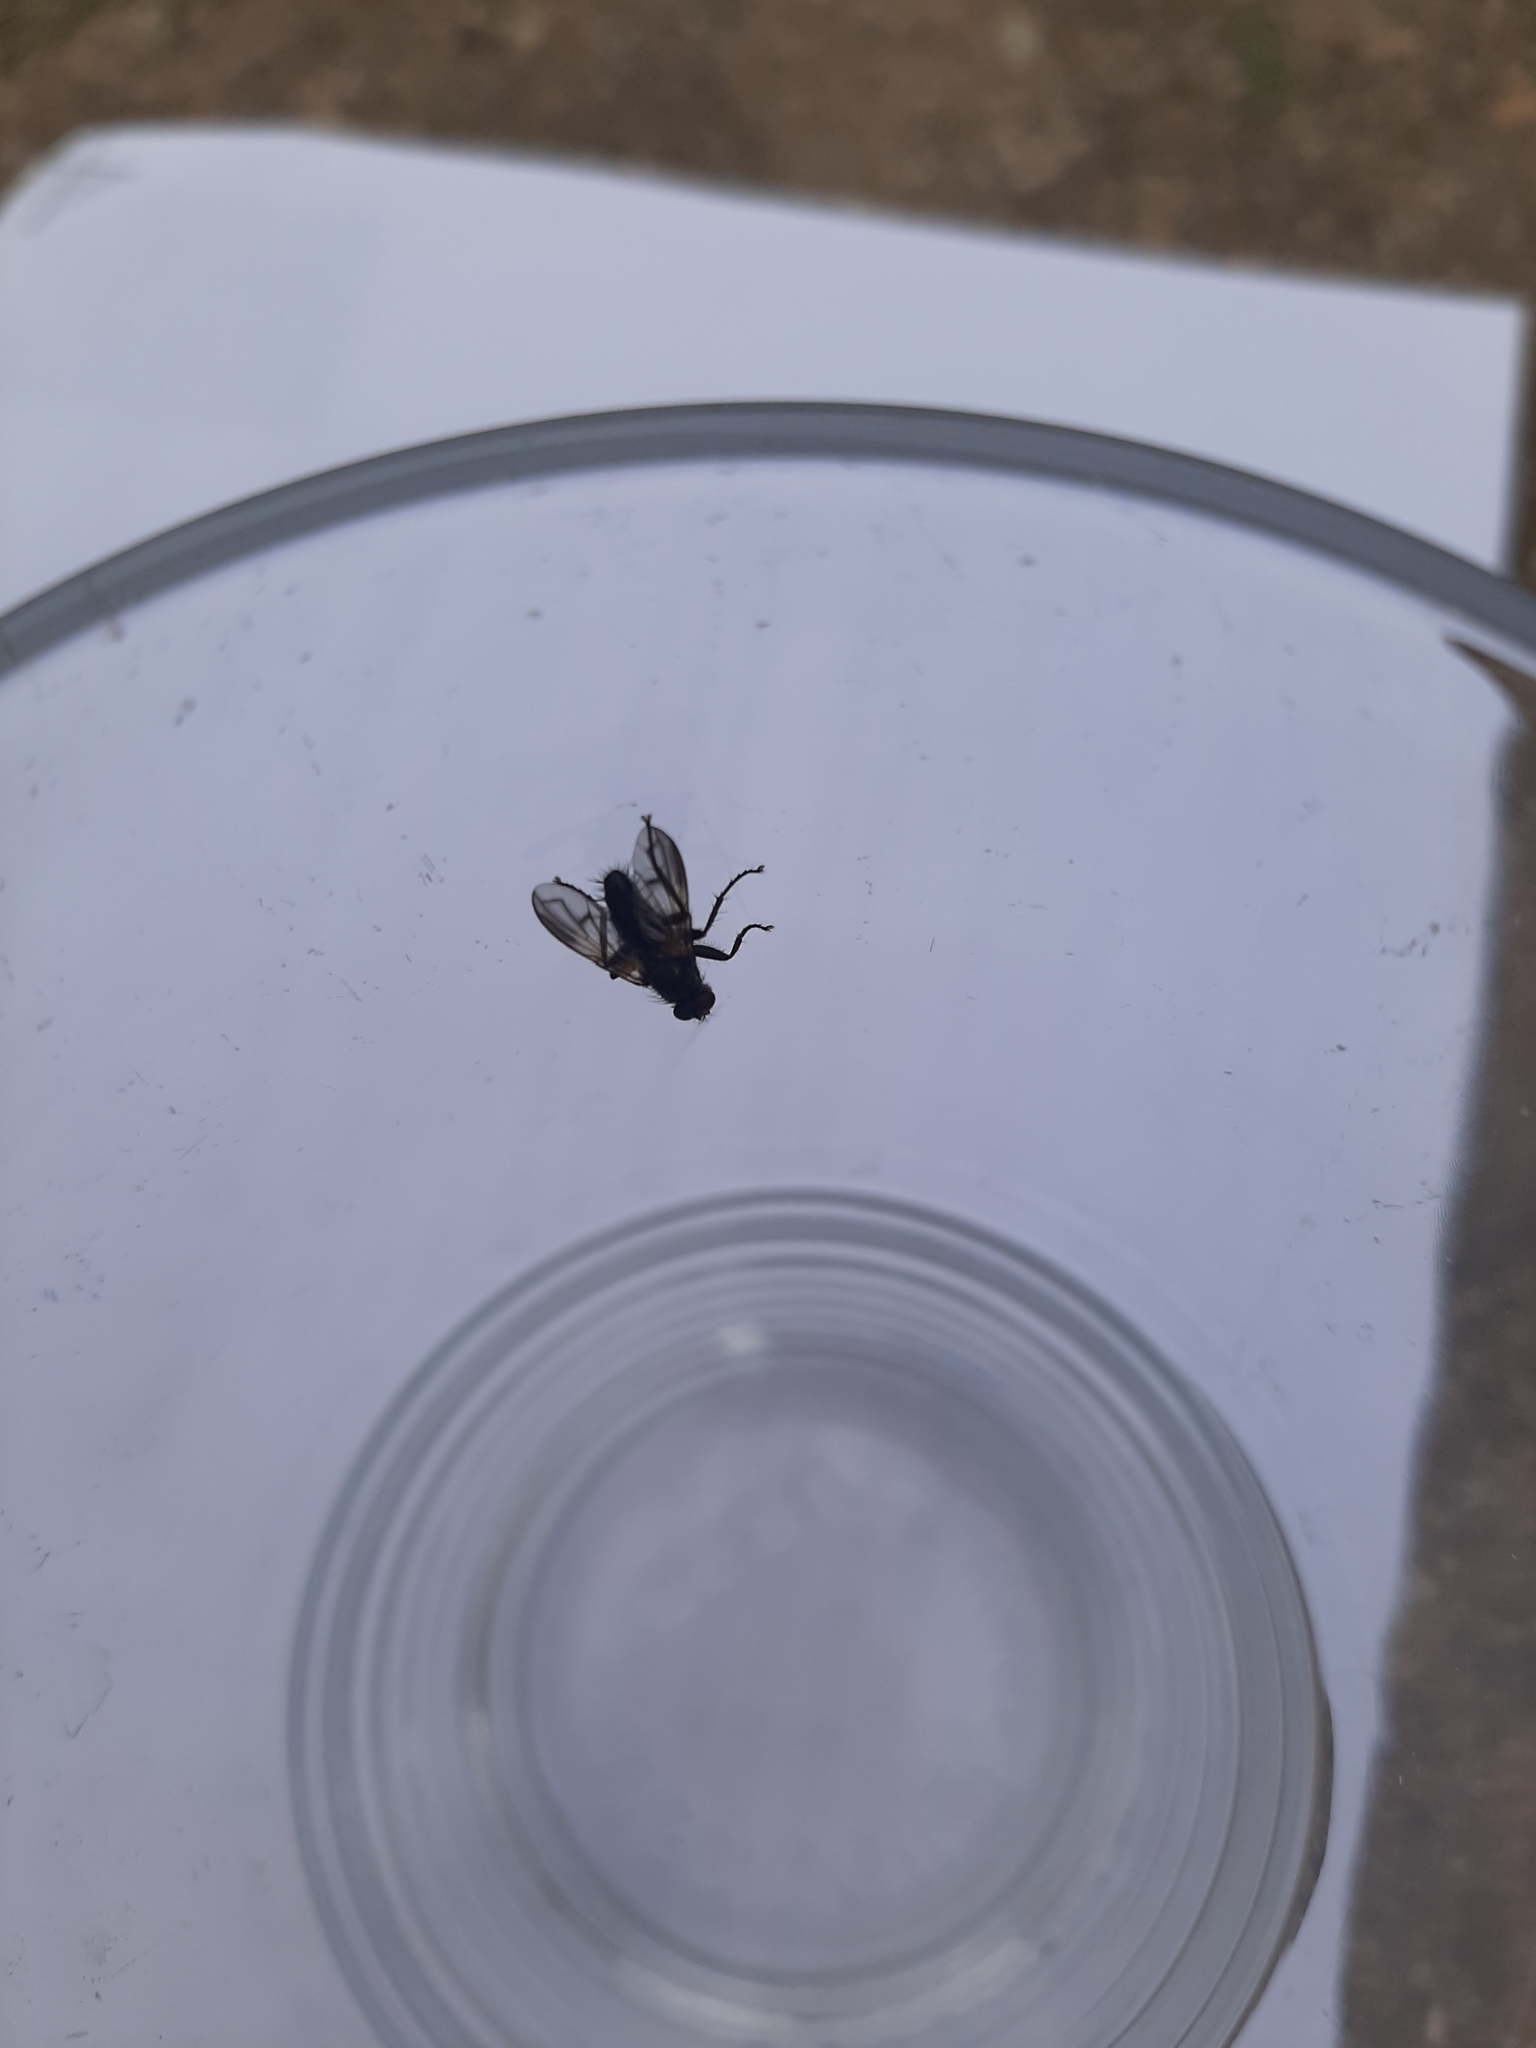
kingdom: Animalia
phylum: Arthropoda
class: Insecta
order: Diptera
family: Calliphoridae
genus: Paykullia
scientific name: Paykullia maculata
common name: Picture-winged woodlouse-fly
